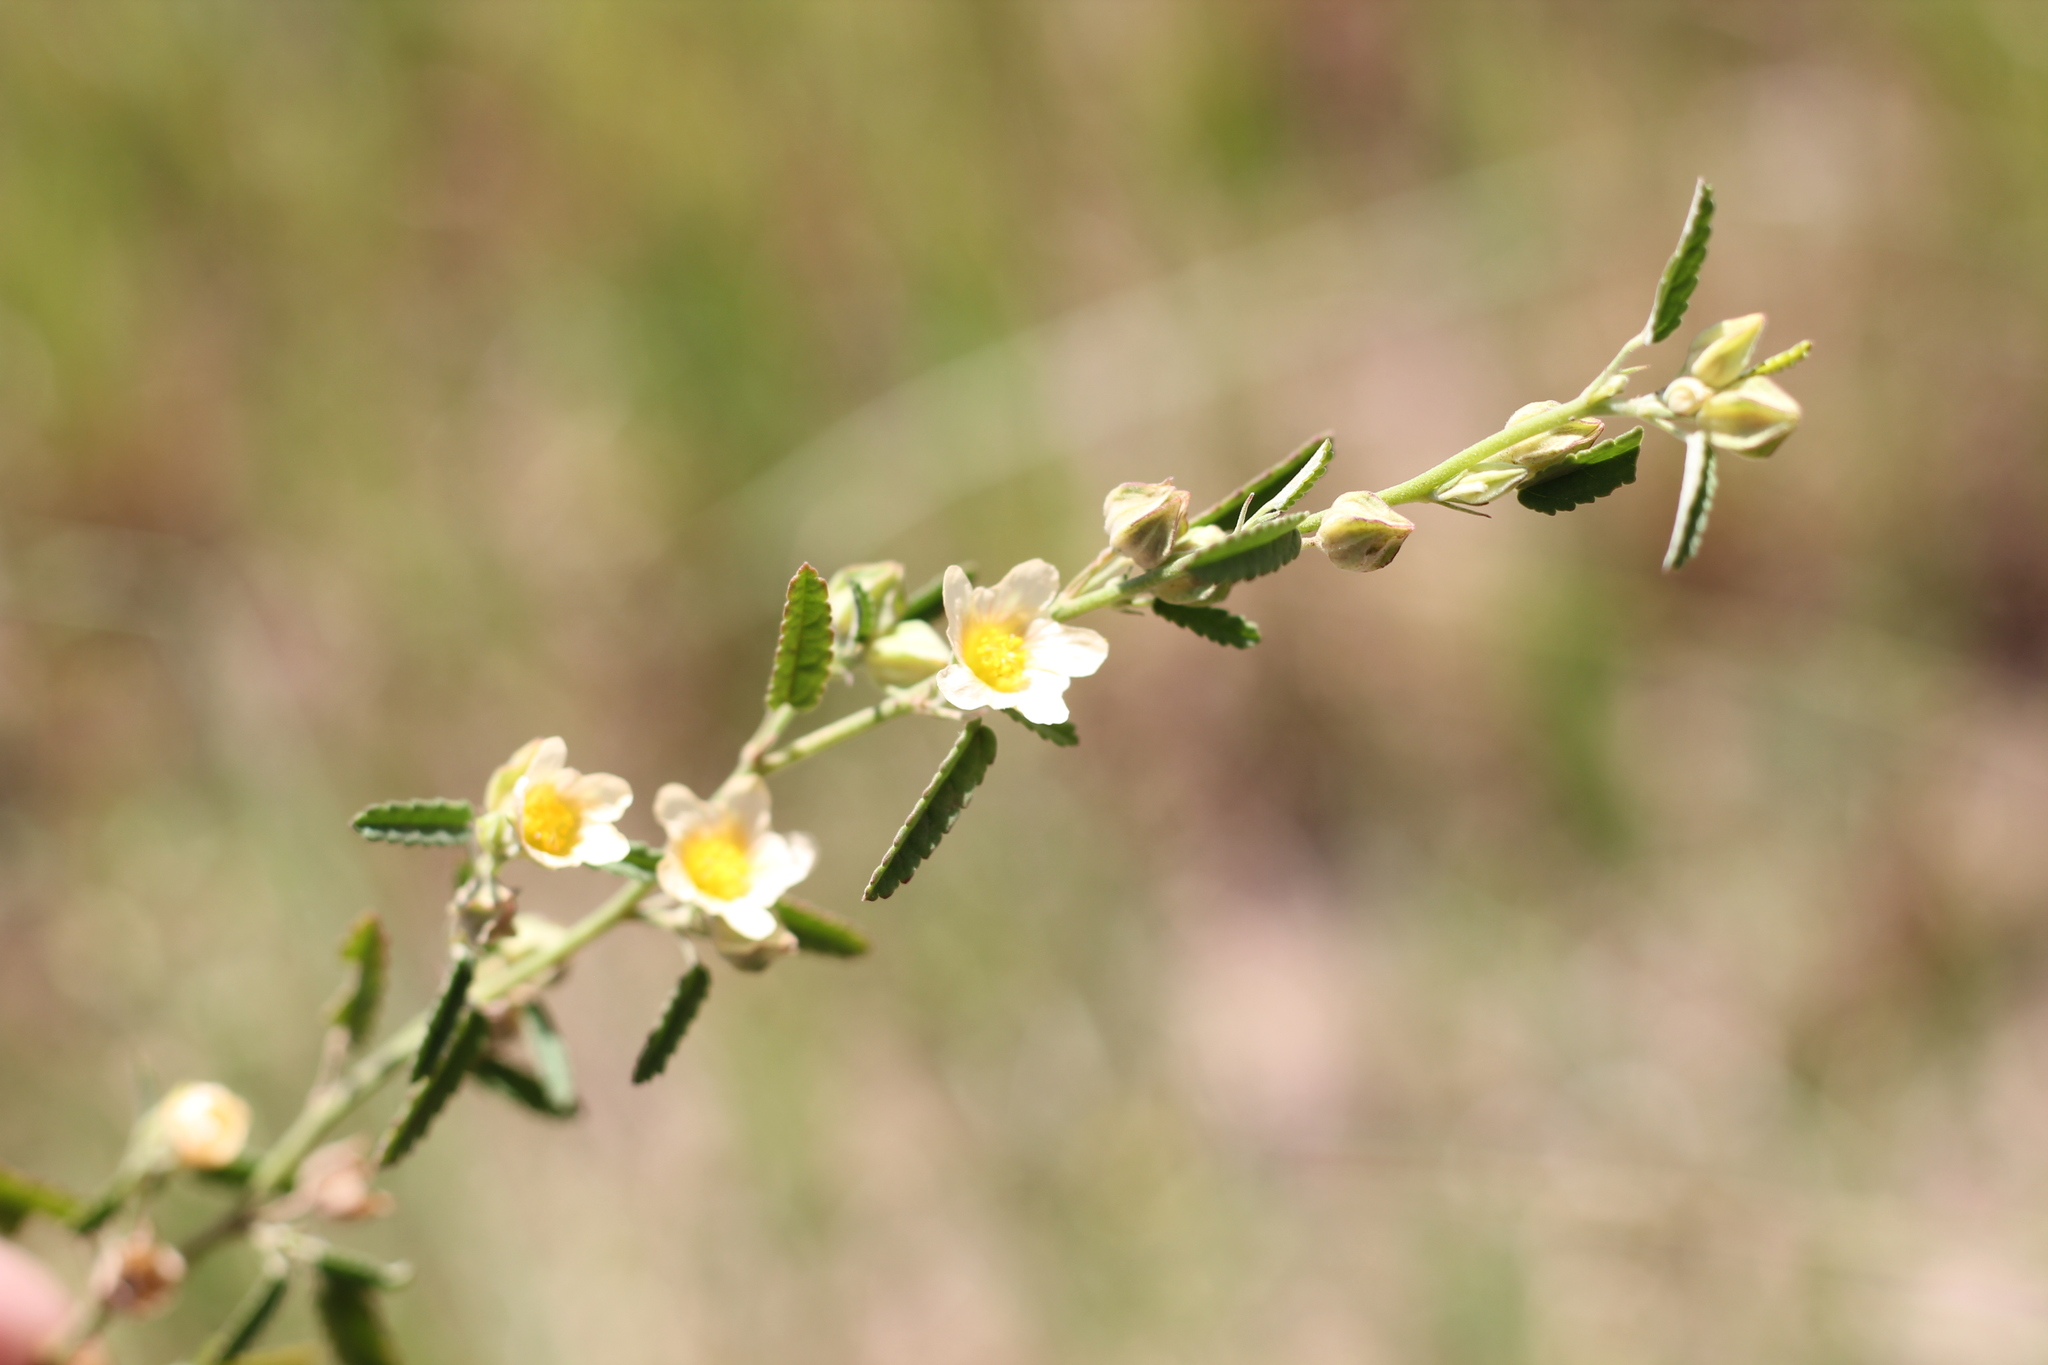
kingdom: Plantae
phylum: Tracheophyta
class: Magnoliopsida
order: Malvales
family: Malvaceae
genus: Sida
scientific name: Sida rhombifolia
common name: Queensland-hemp
